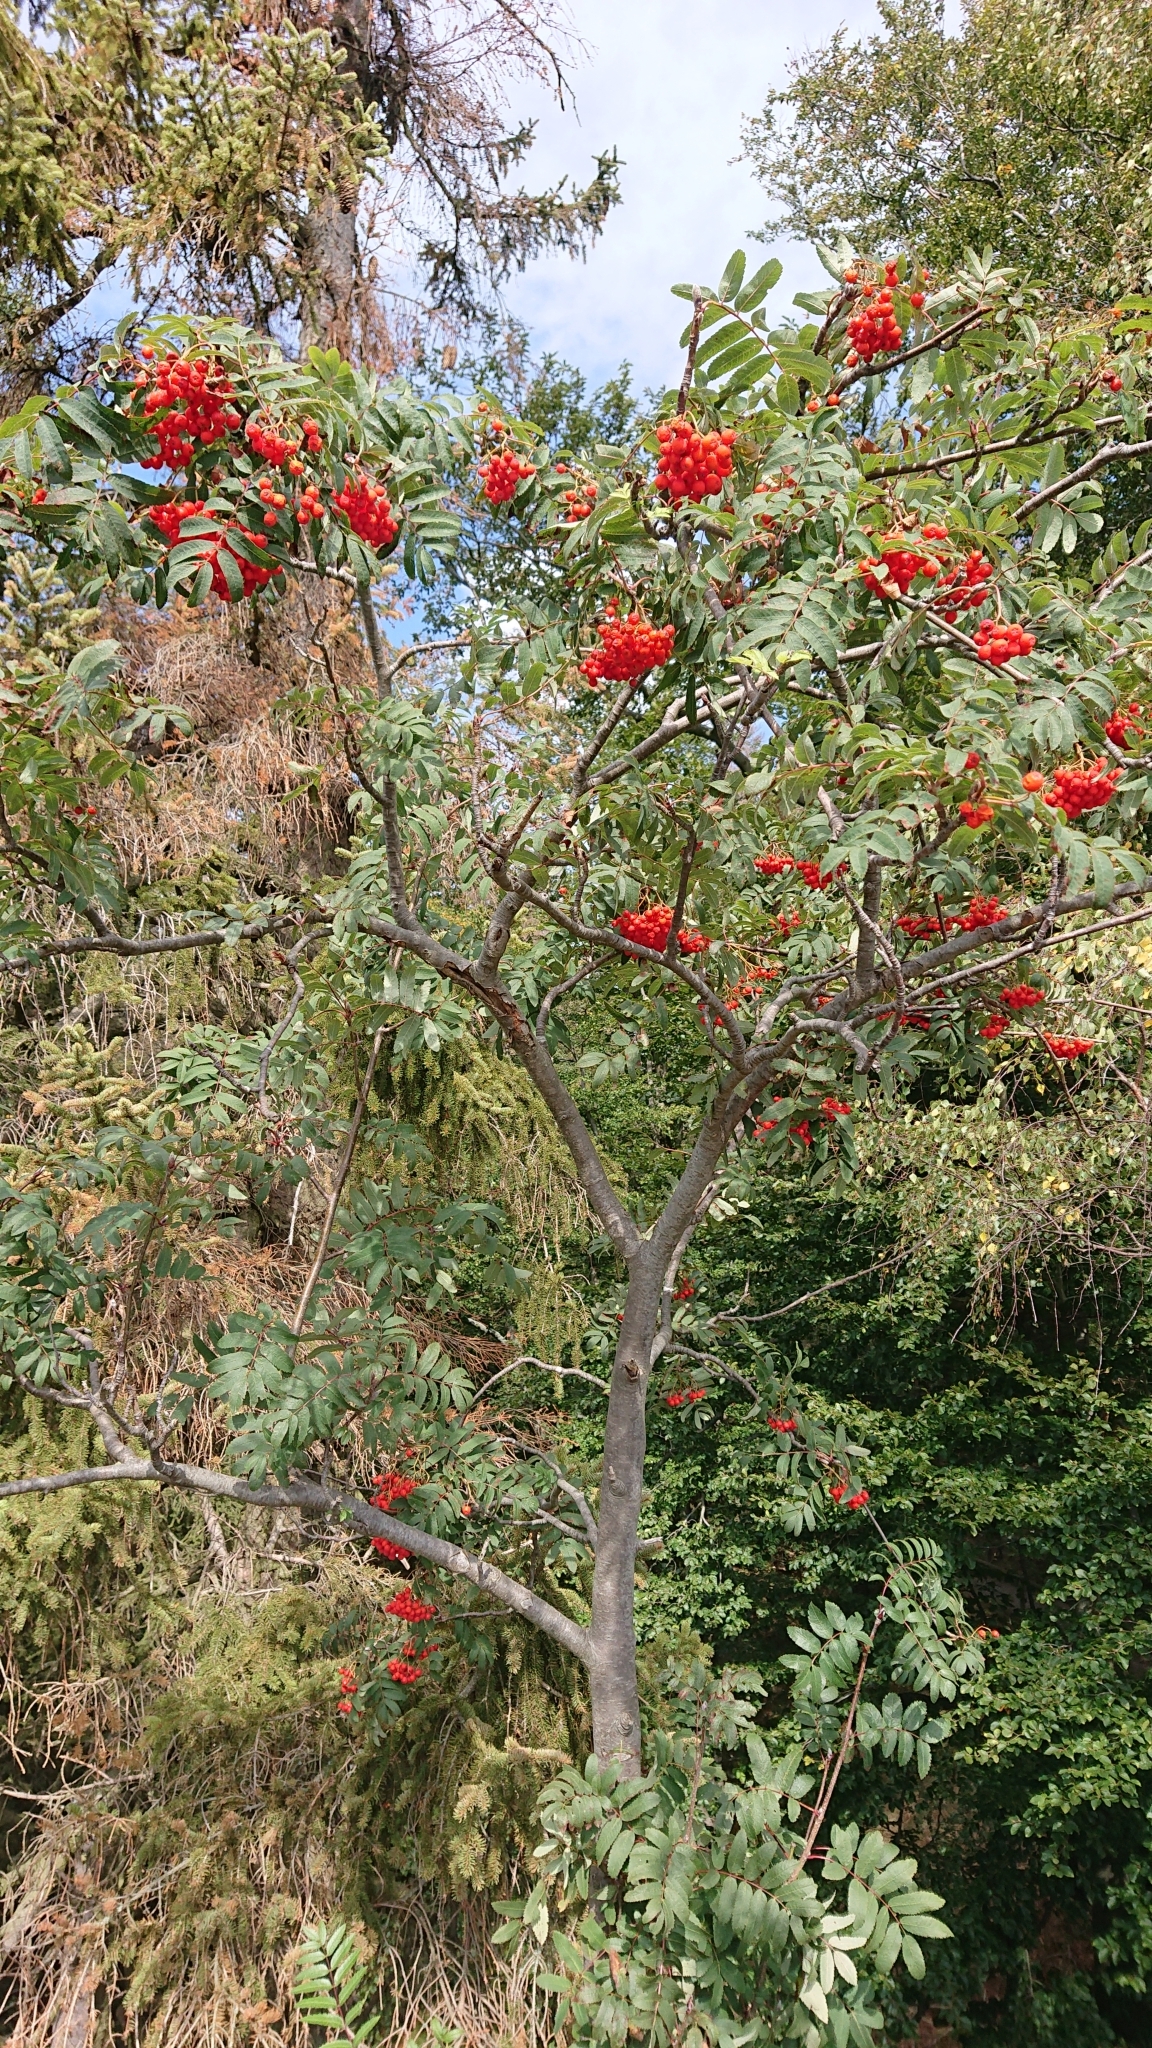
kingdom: Plantae
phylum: Tracheophyta
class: Magnoliopsida
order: Rosales
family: Rosaceae
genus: Sorbus
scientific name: Sorbus aucuparia
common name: Rowan
